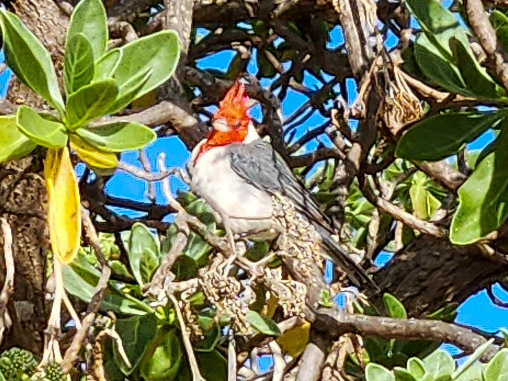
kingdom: Animalia
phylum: Chordata
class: Aves
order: Passeriformes
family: Thraupidae
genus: Paroaria
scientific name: Paroaria coronata
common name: Red-crested cardinal
